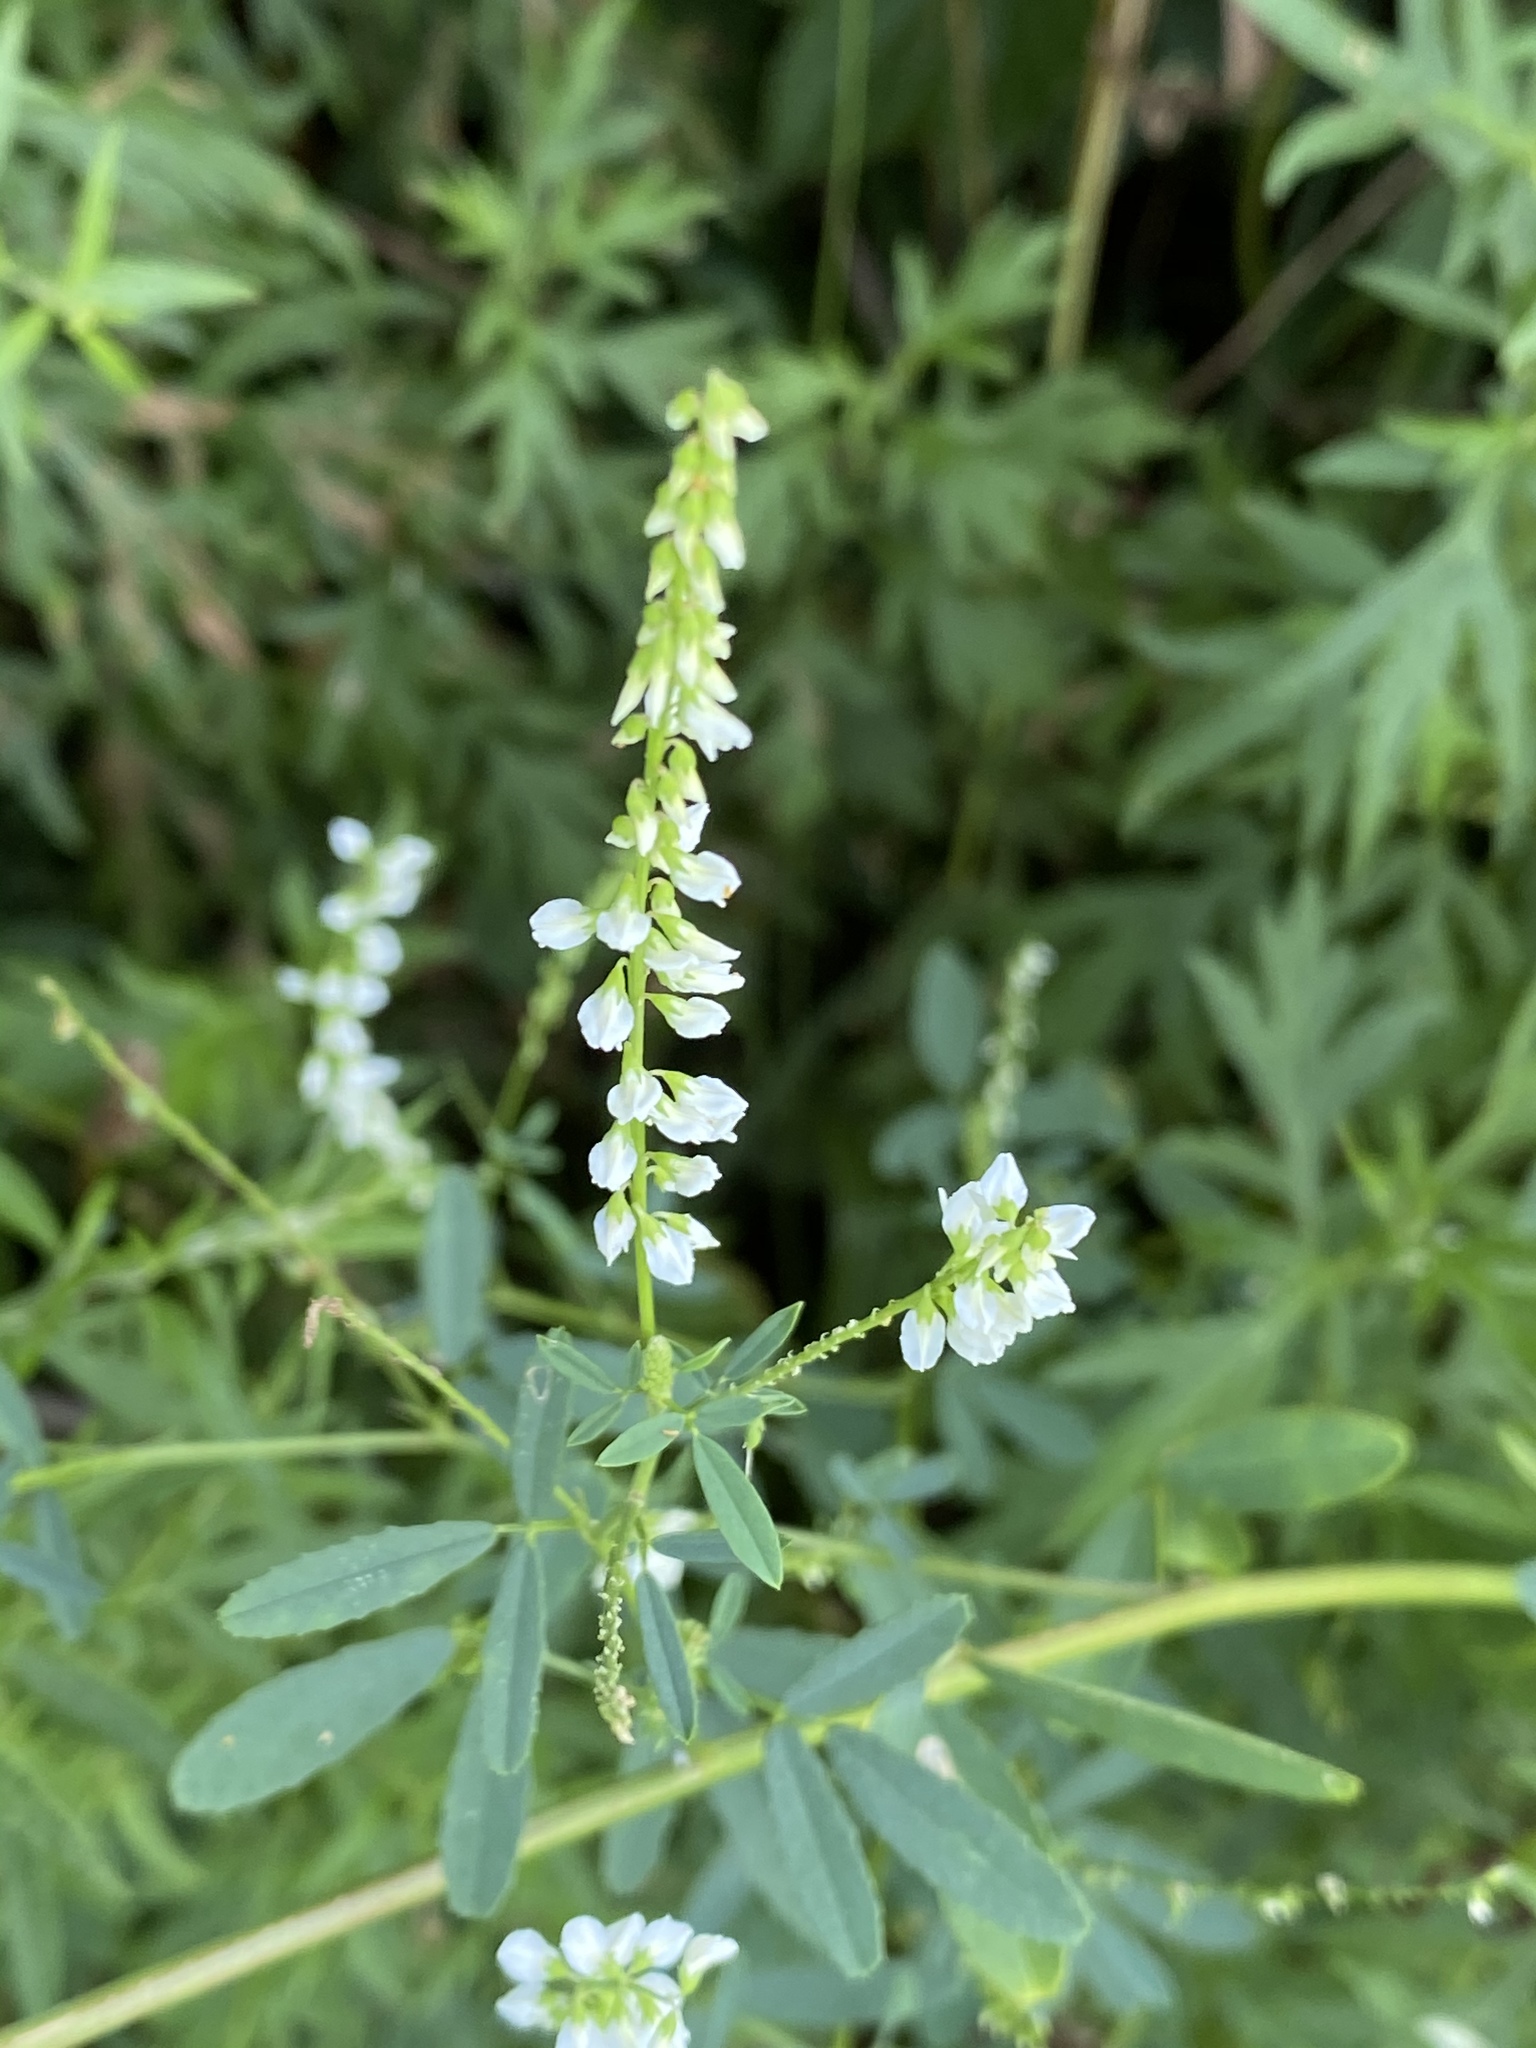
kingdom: Plantae
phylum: Tracheophyta
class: Magnoliopsida
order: Fabales
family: Fabaceae
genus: Melilotus
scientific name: Melilotus albus
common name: White melilot
